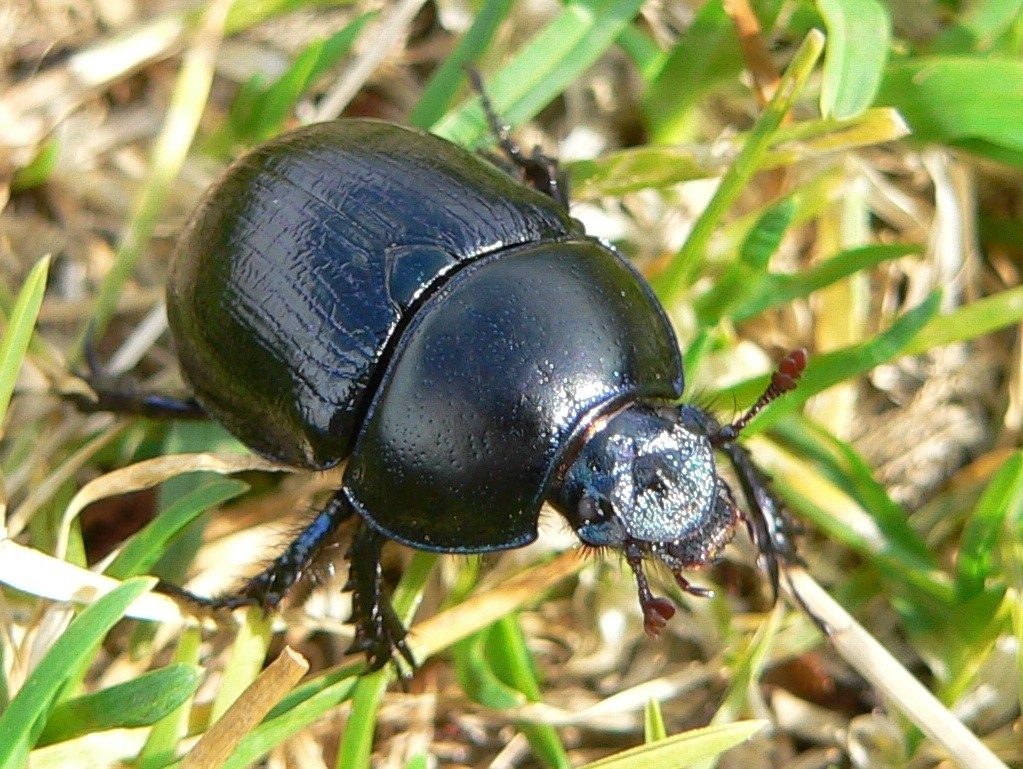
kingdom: Animalia
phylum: Arthropoda
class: Insecta
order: Coleoptera
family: Geotrupidae
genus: Anoplotrupes
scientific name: Anoplotrupes stercorosus
